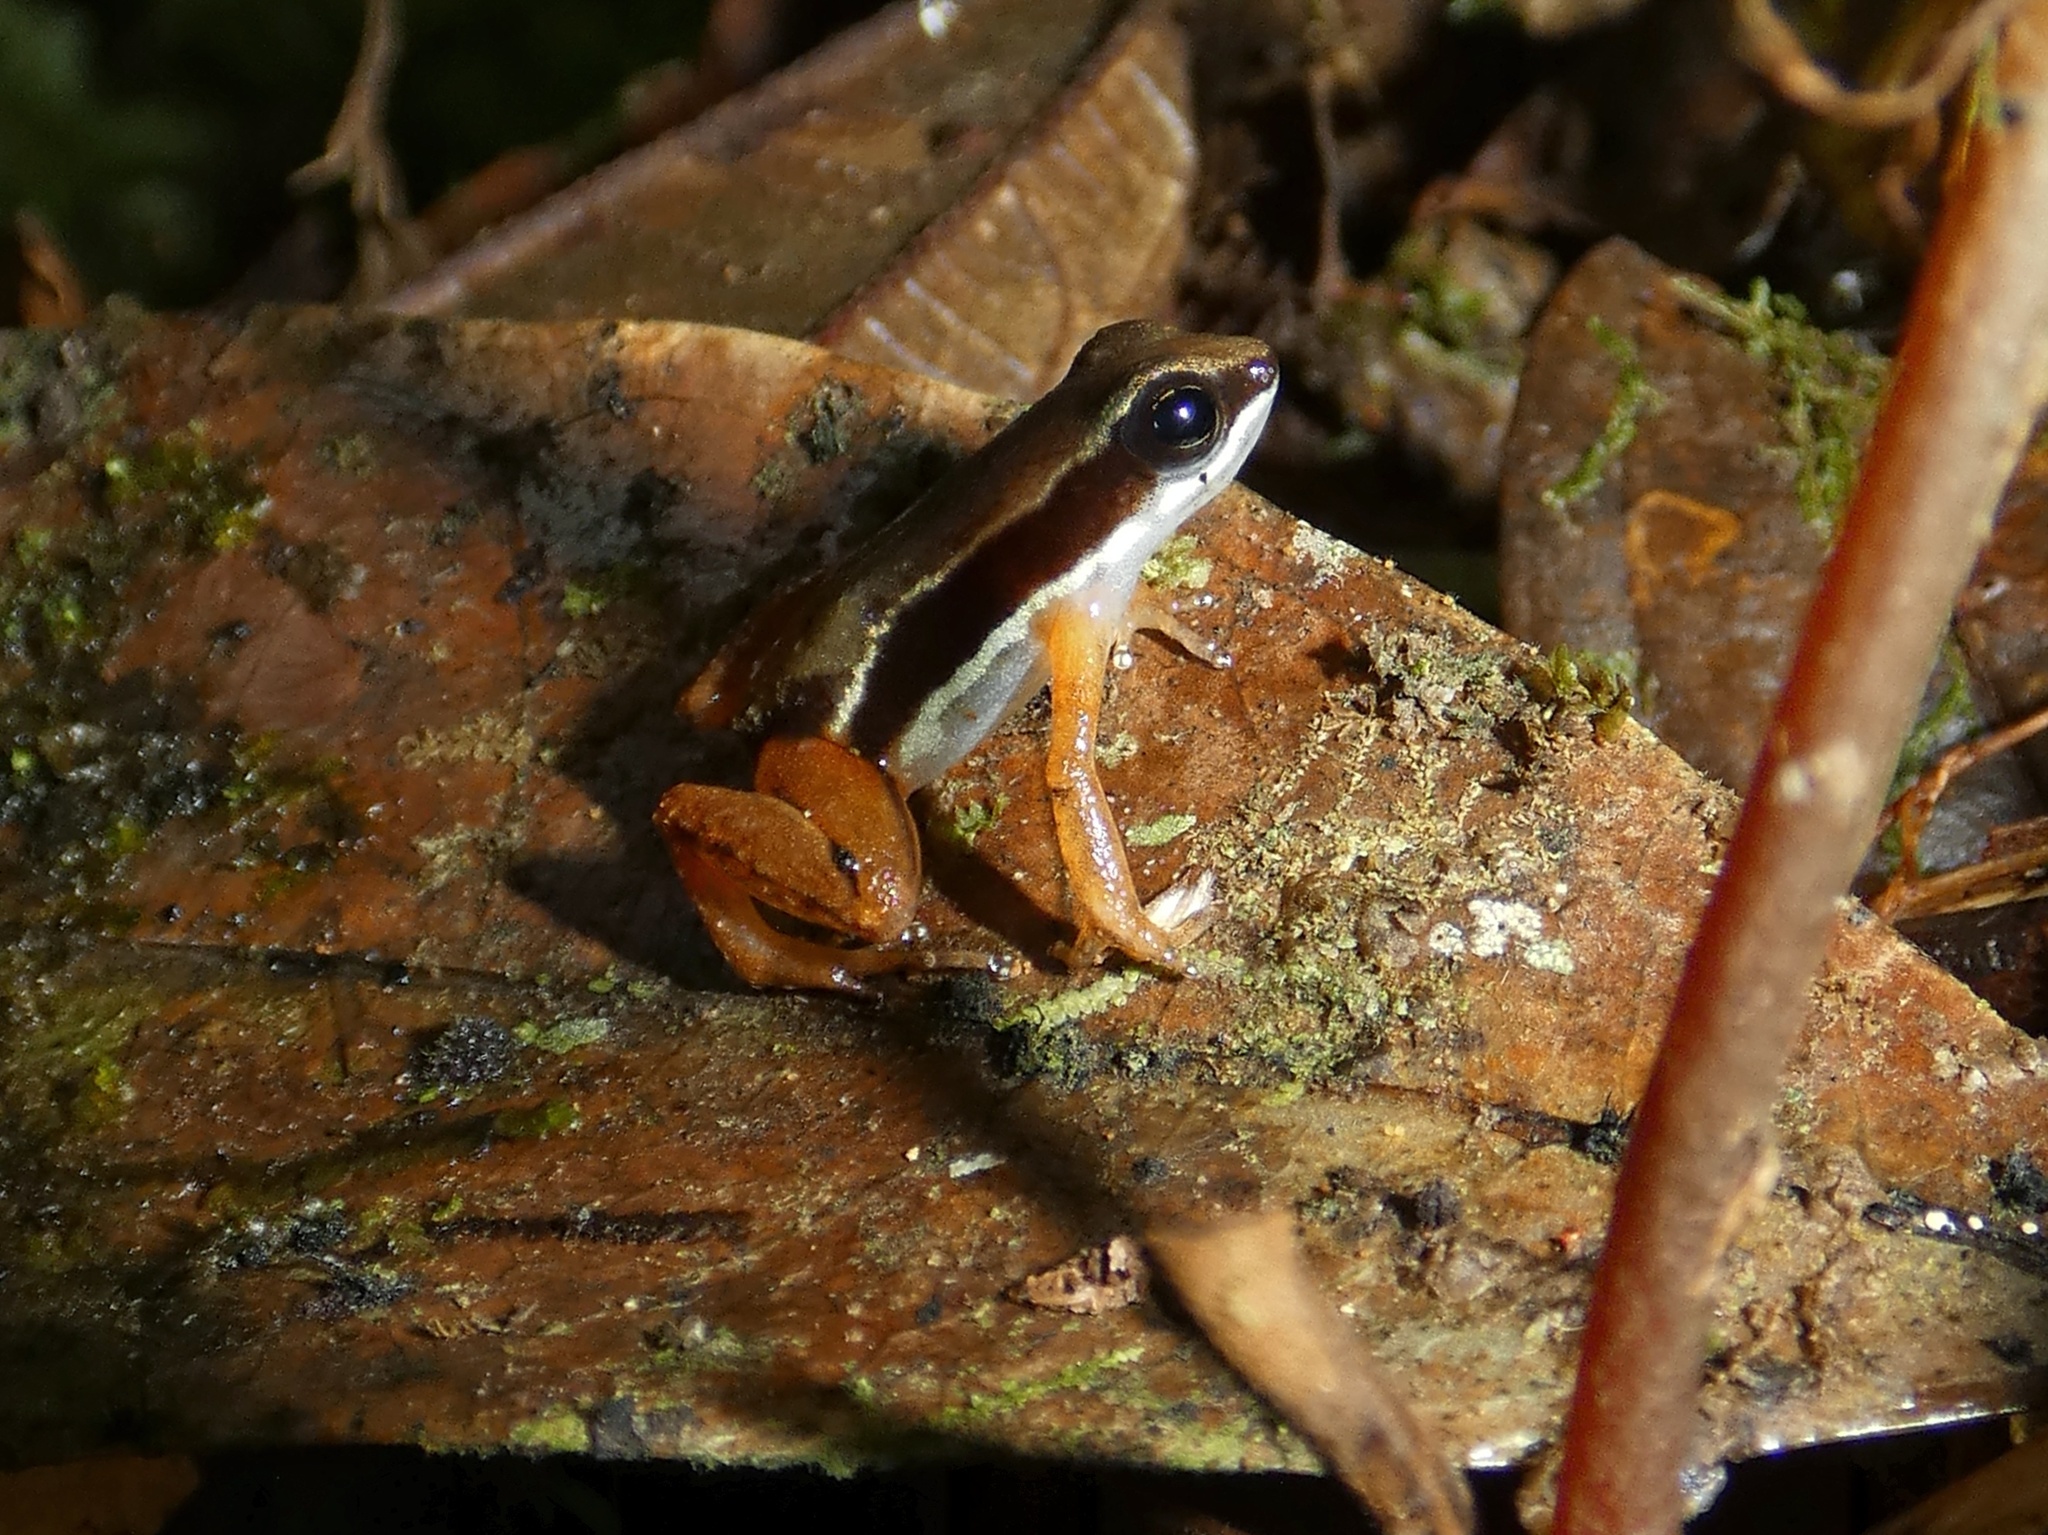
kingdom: Animalia
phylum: Chordata
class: Amphibia
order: Anura
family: Dendrobatidae
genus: Silverstoneia
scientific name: Silverstoneia flotator
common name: Rainforest rocket frog
